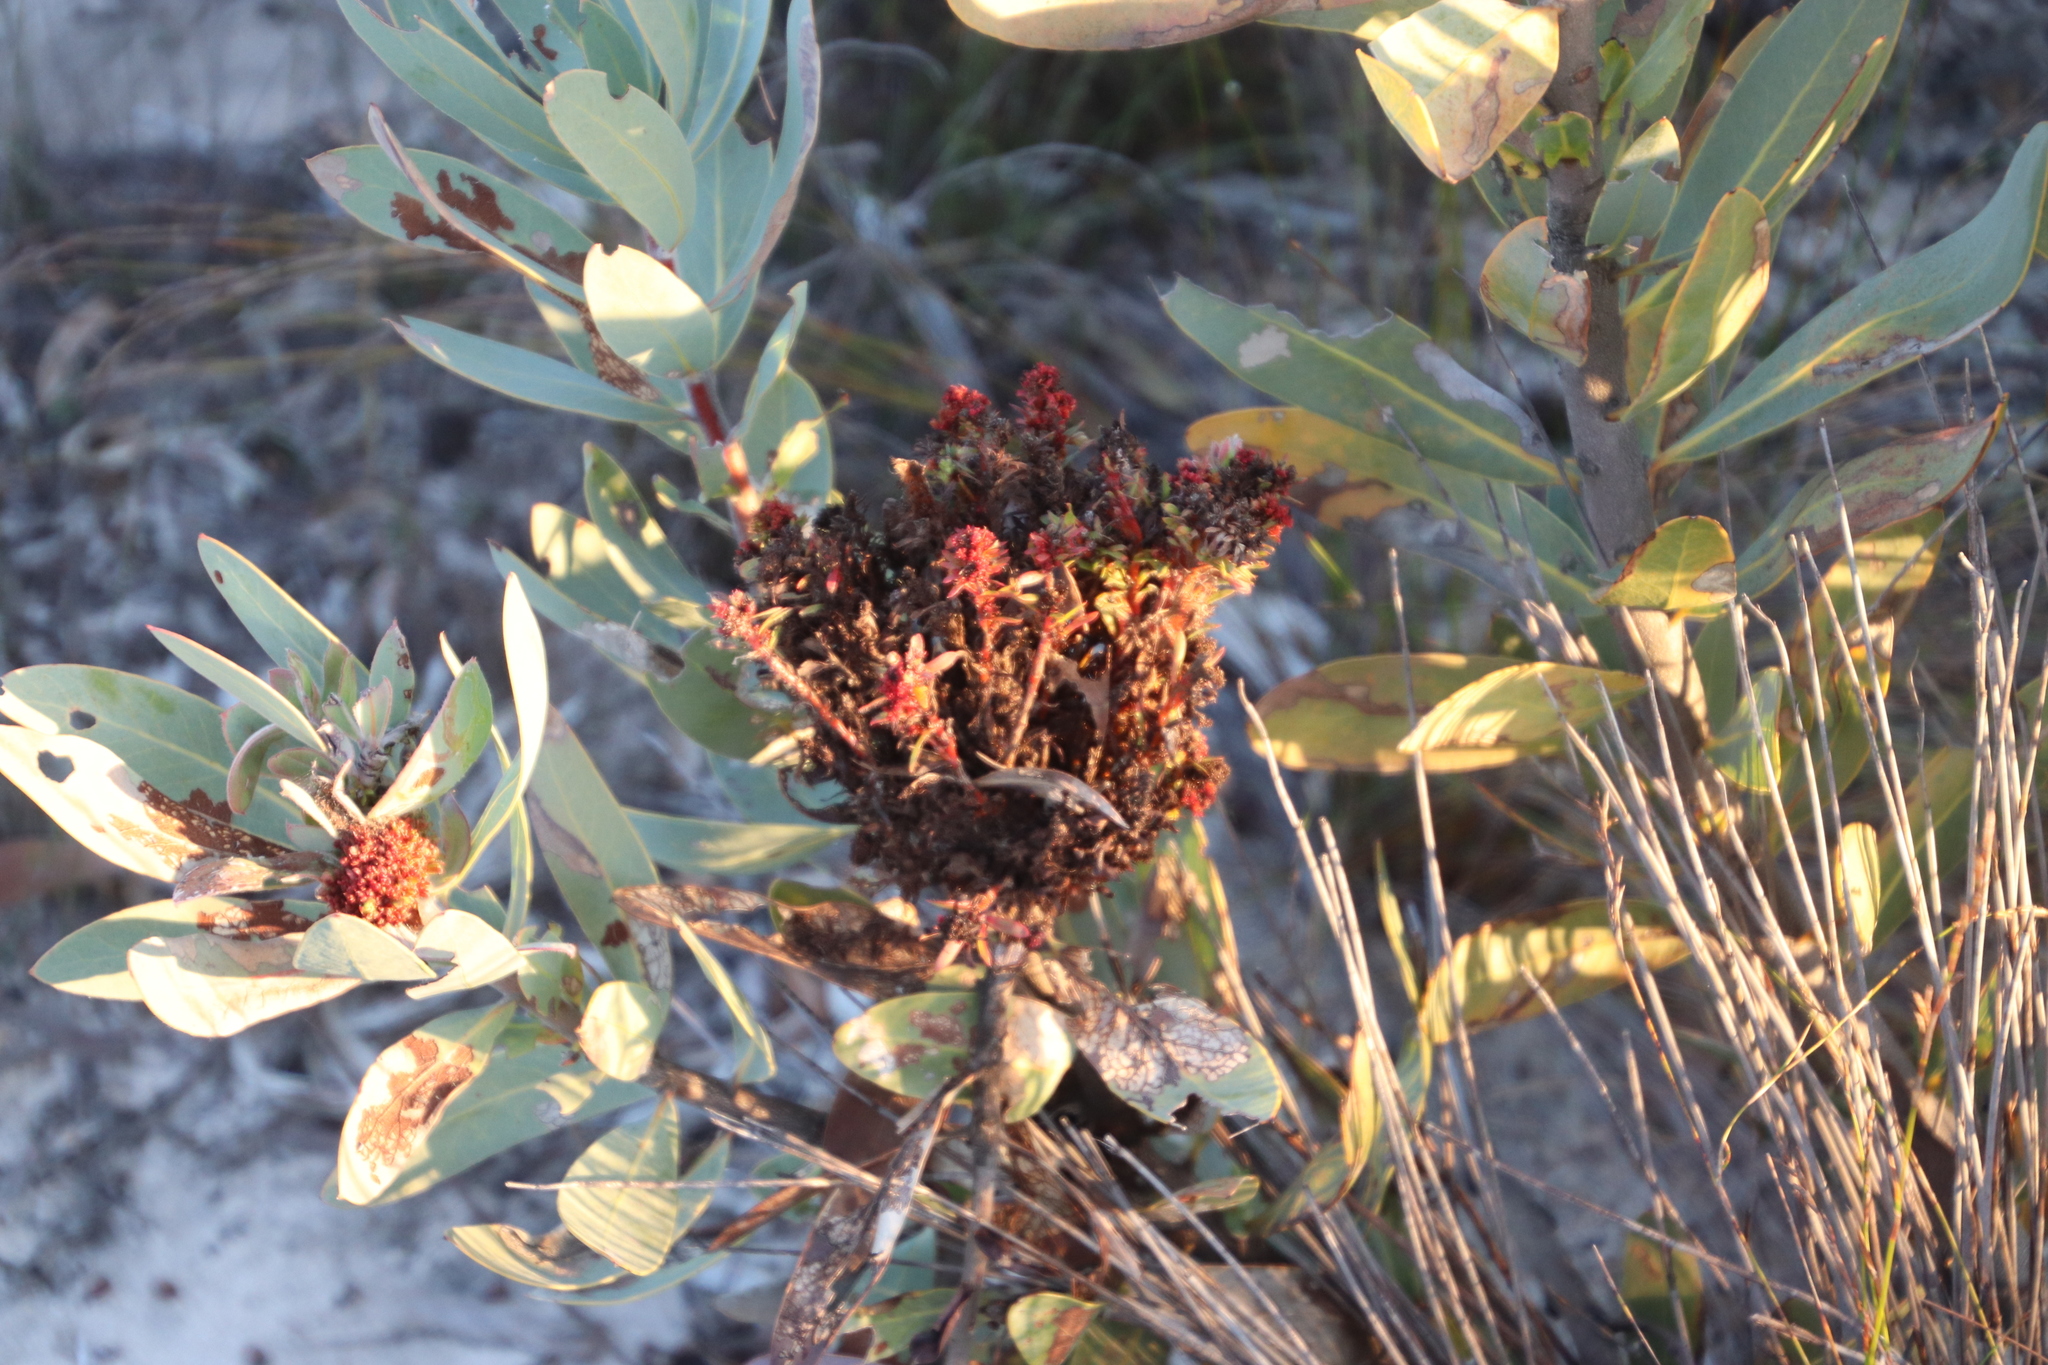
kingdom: Bacteria
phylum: Firmicutes
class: Bacilli
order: Acholeplasmatales
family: Acholeplasmataceae
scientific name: Acholeplasmataceae
